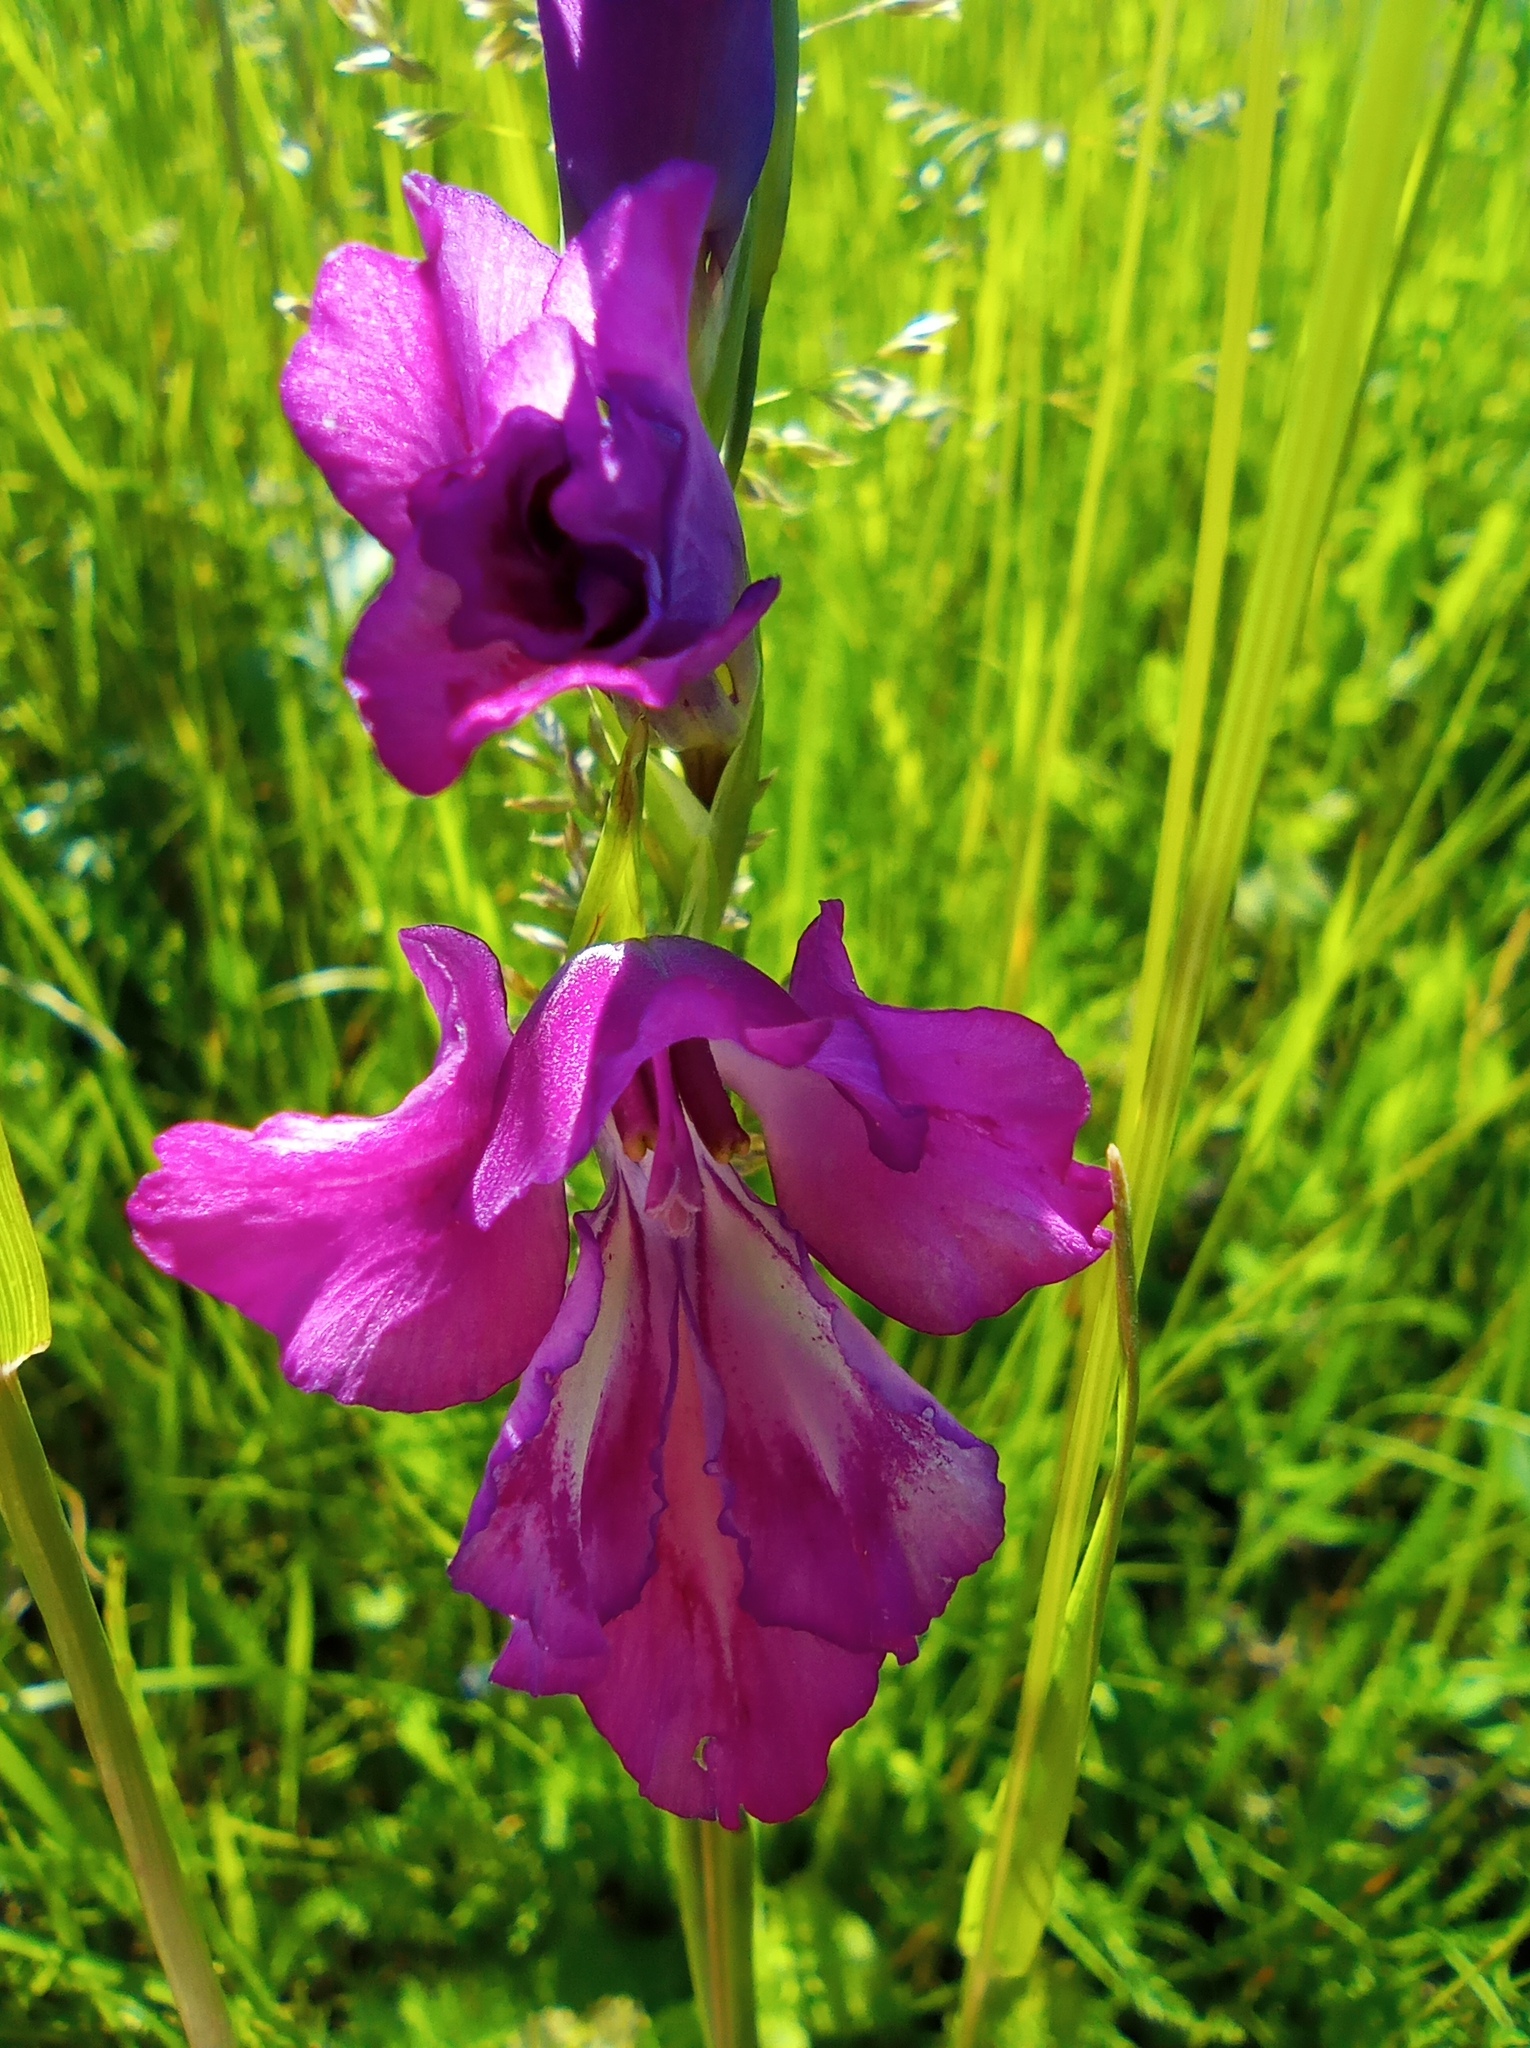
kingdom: Plantae
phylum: Tracheophyta
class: Liliopsida
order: Asparagales
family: Iridaceae
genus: Gladiolus
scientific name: Gladiolus tenuis
